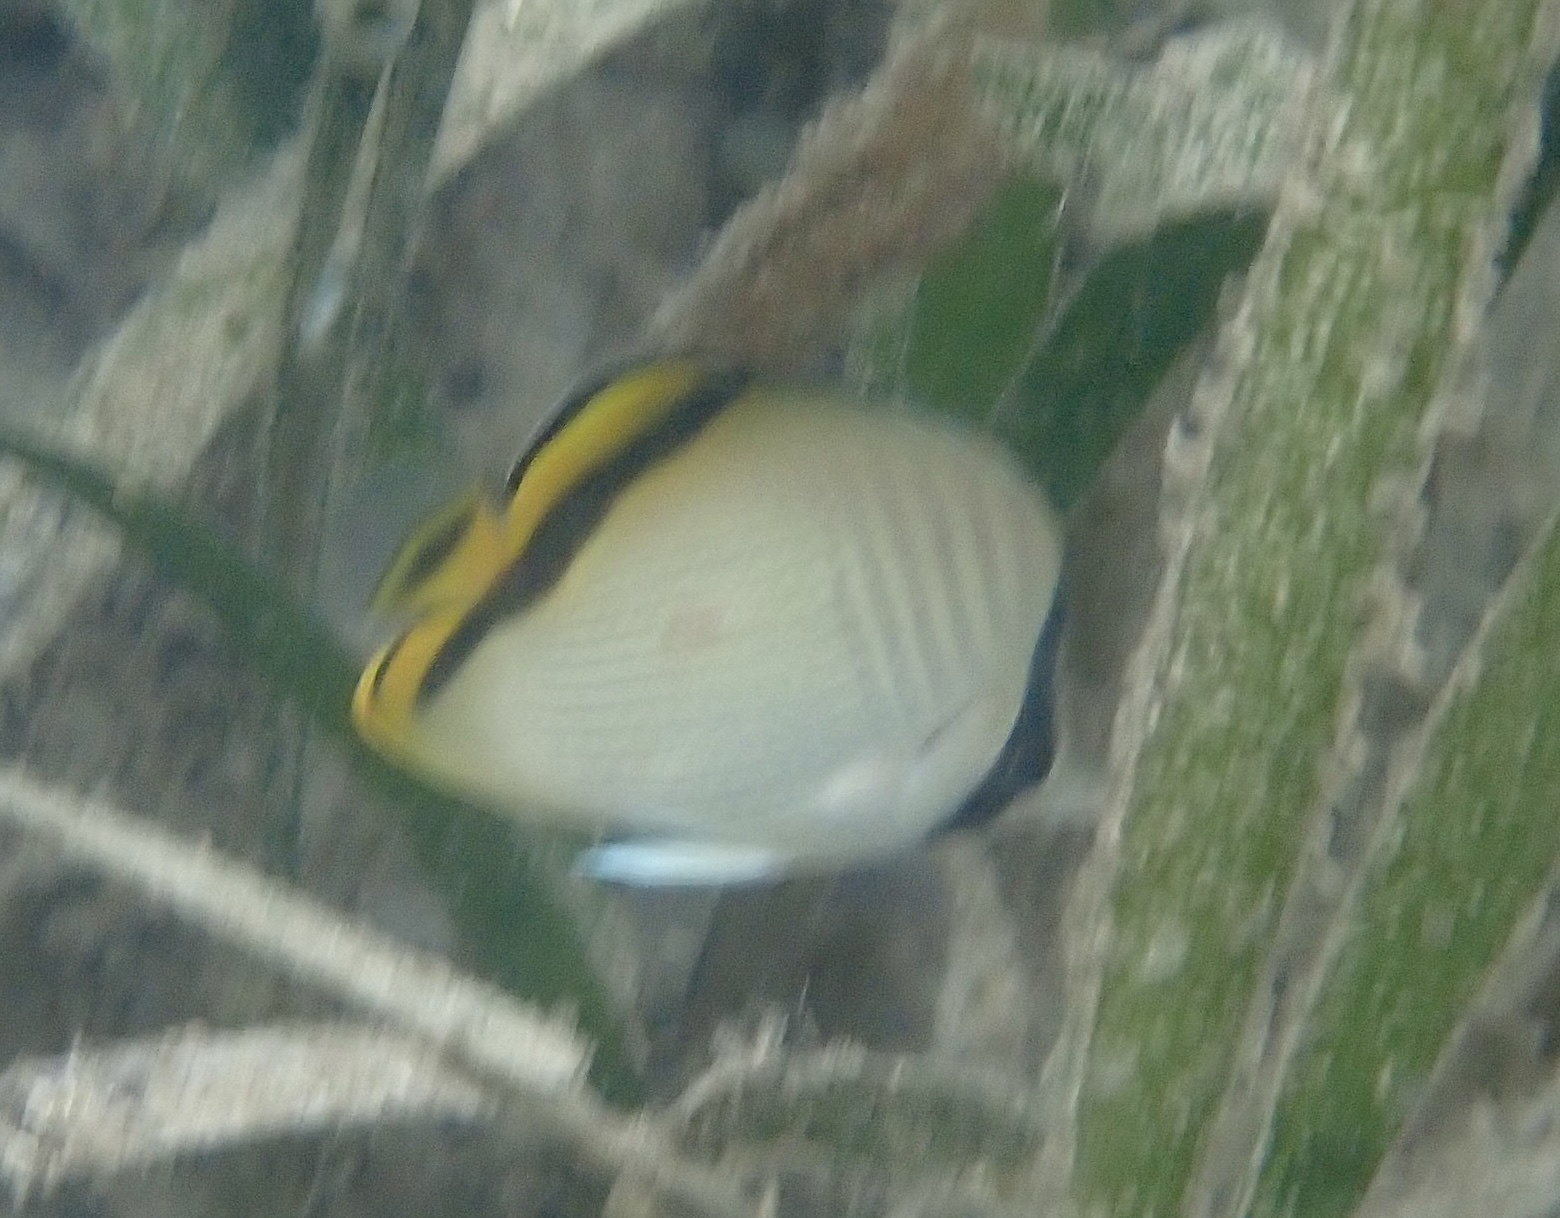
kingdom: Animalia
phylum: Chordata
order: Perciformes
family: Chaetodontidae
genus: Chaetodon
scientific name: Chaetodon vagabundus
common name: Vagabond butterflyfish
